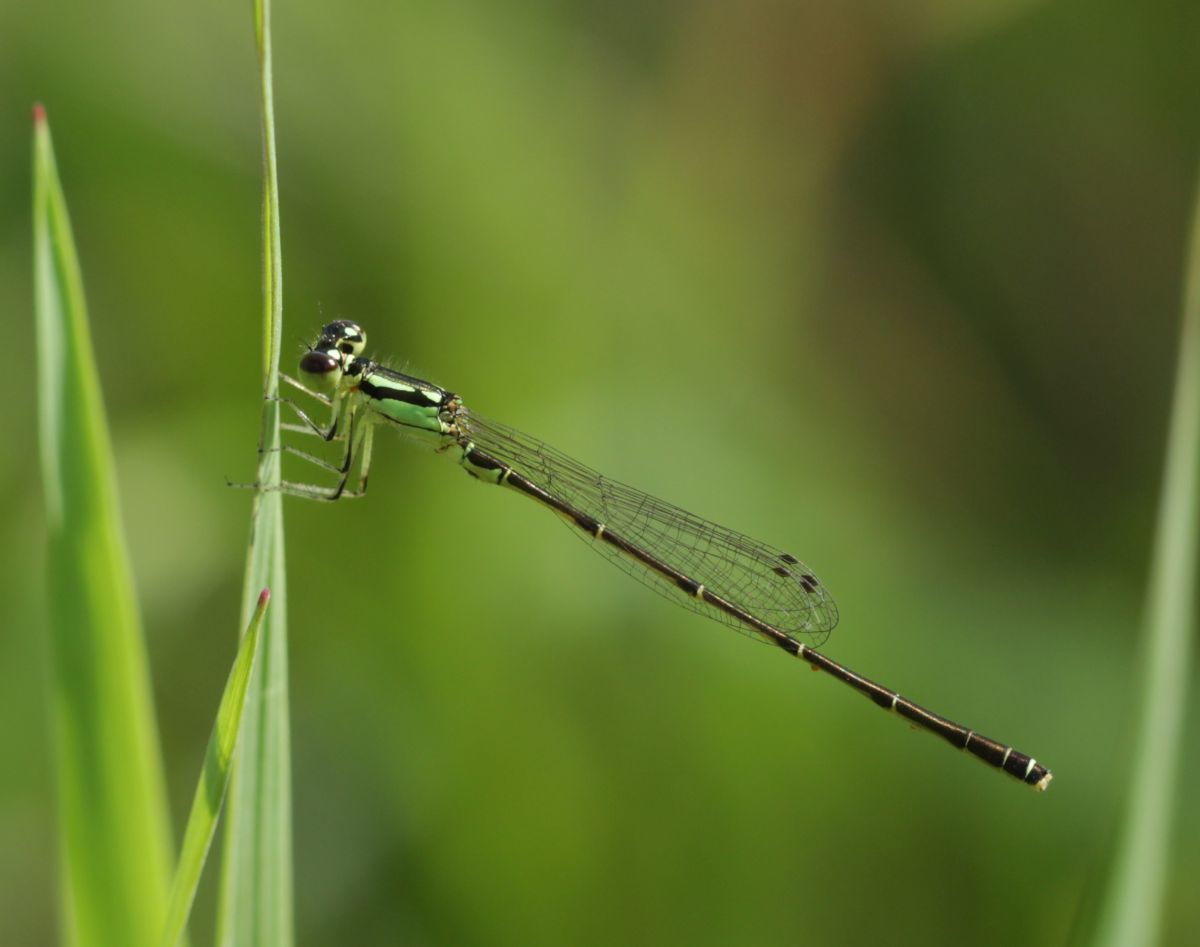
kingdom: Animalia
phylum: Arthropoda
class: Insecta
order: Odonata
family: Coenagrionidae
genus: Ischnura
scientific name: Ischnura posita
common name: Fragile forktail
